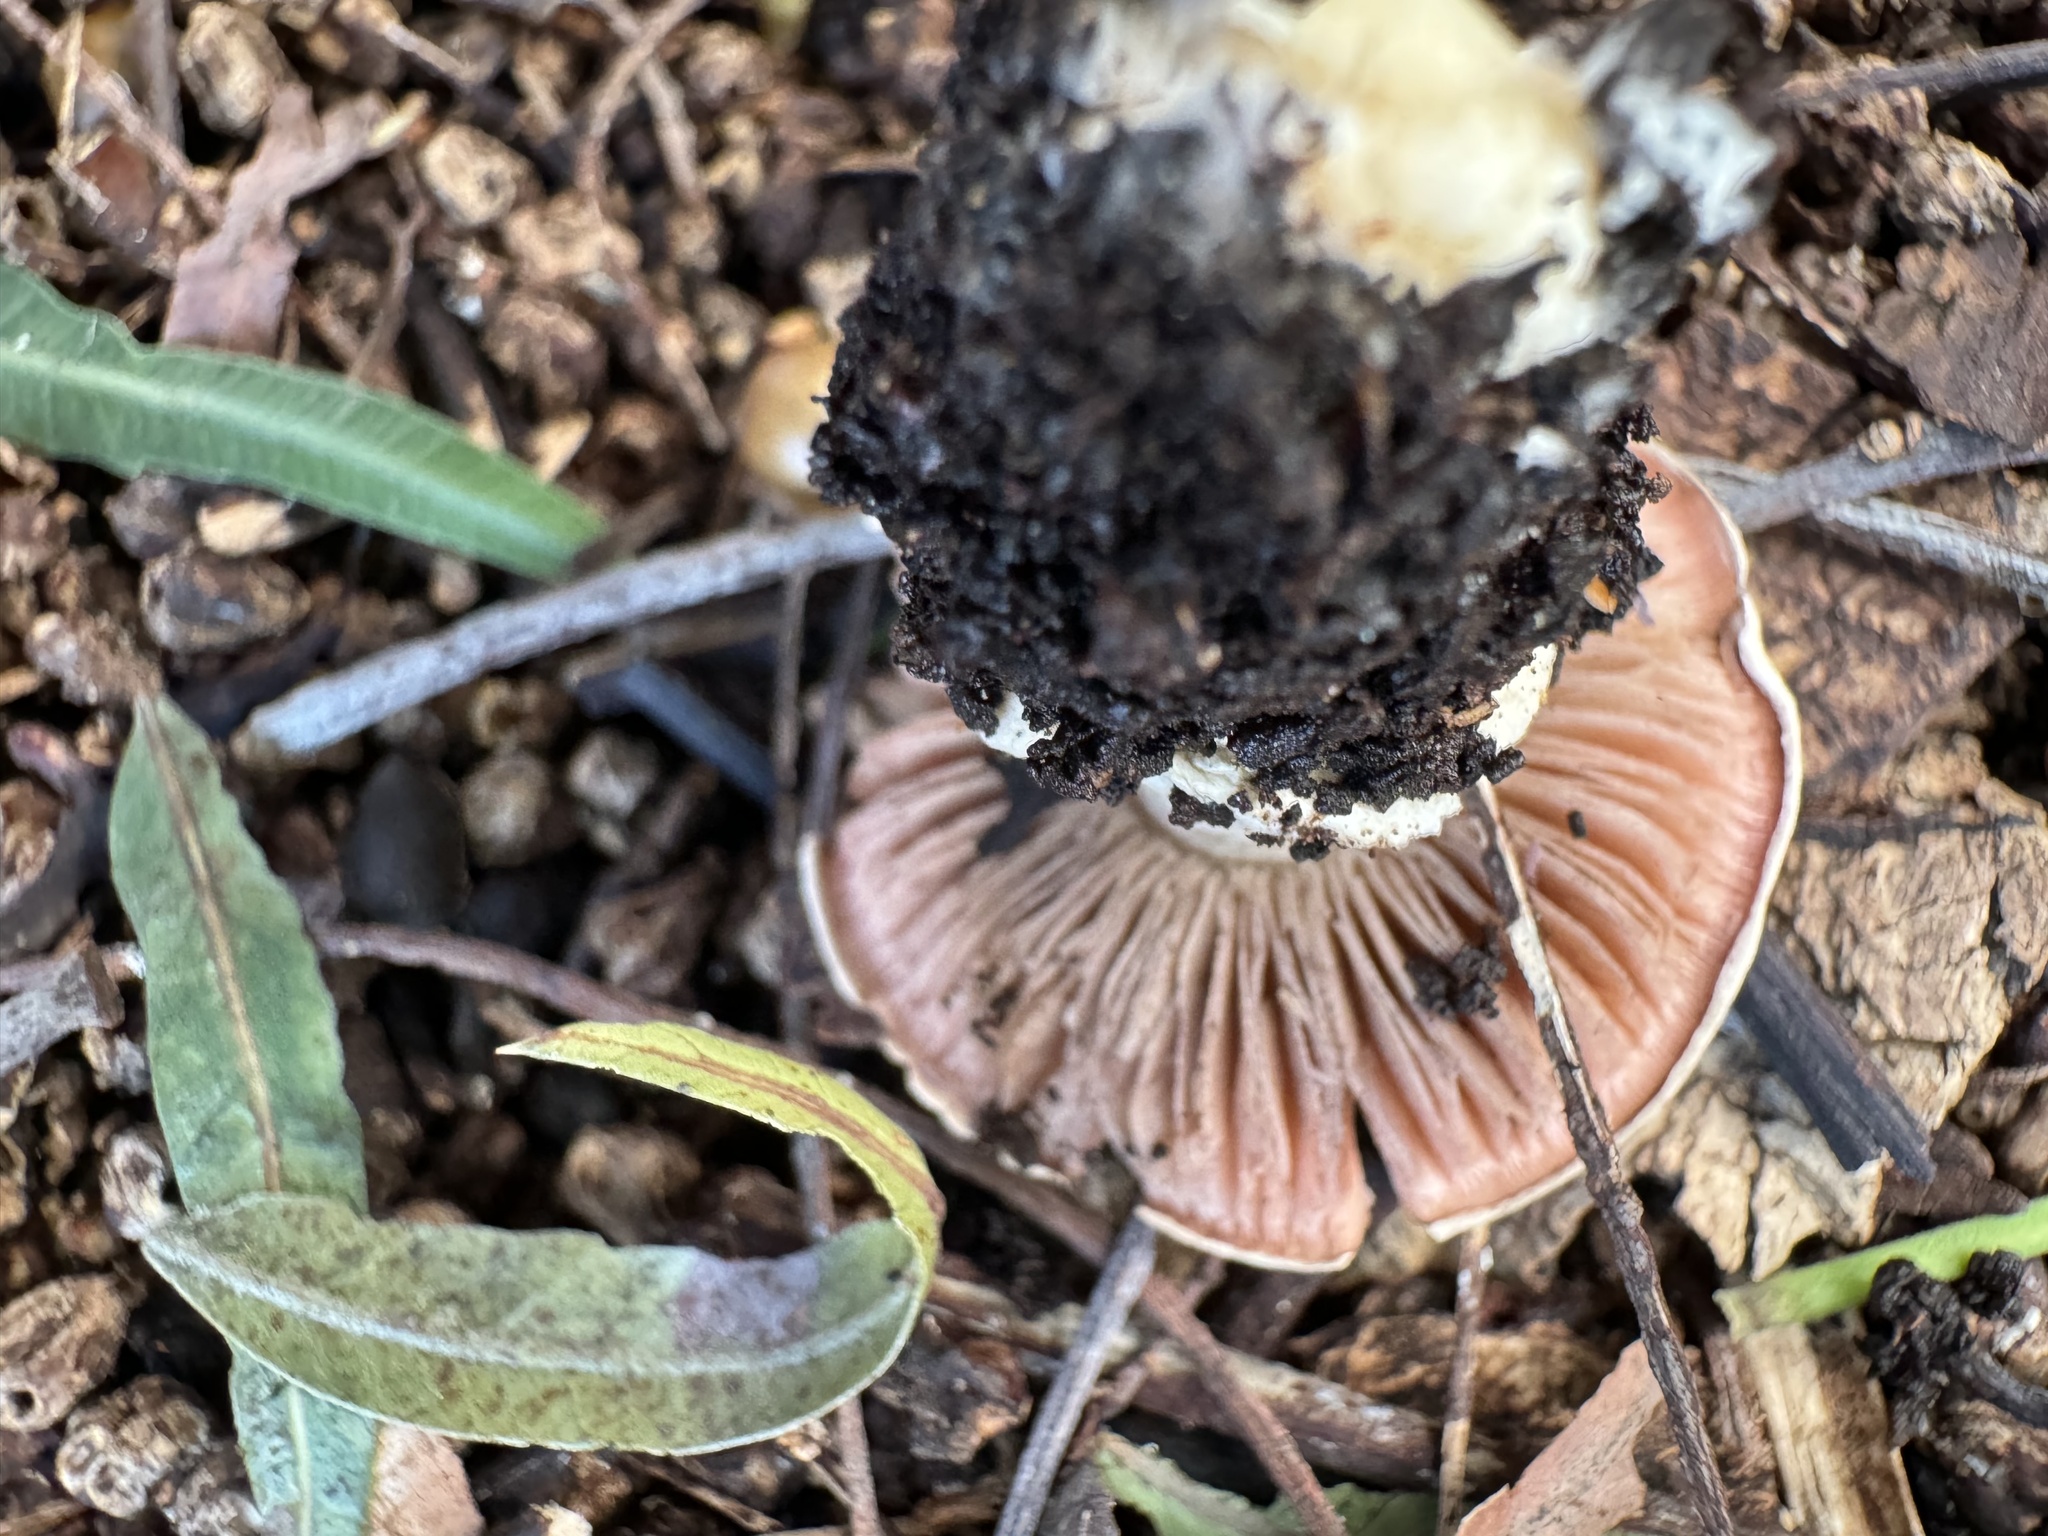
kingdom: Fungi
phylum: Basidiomycota
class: Agaricomycetes
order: Agaricales
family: Agaricaceae
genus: Agaricus
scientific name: Agaricus kerriganii
